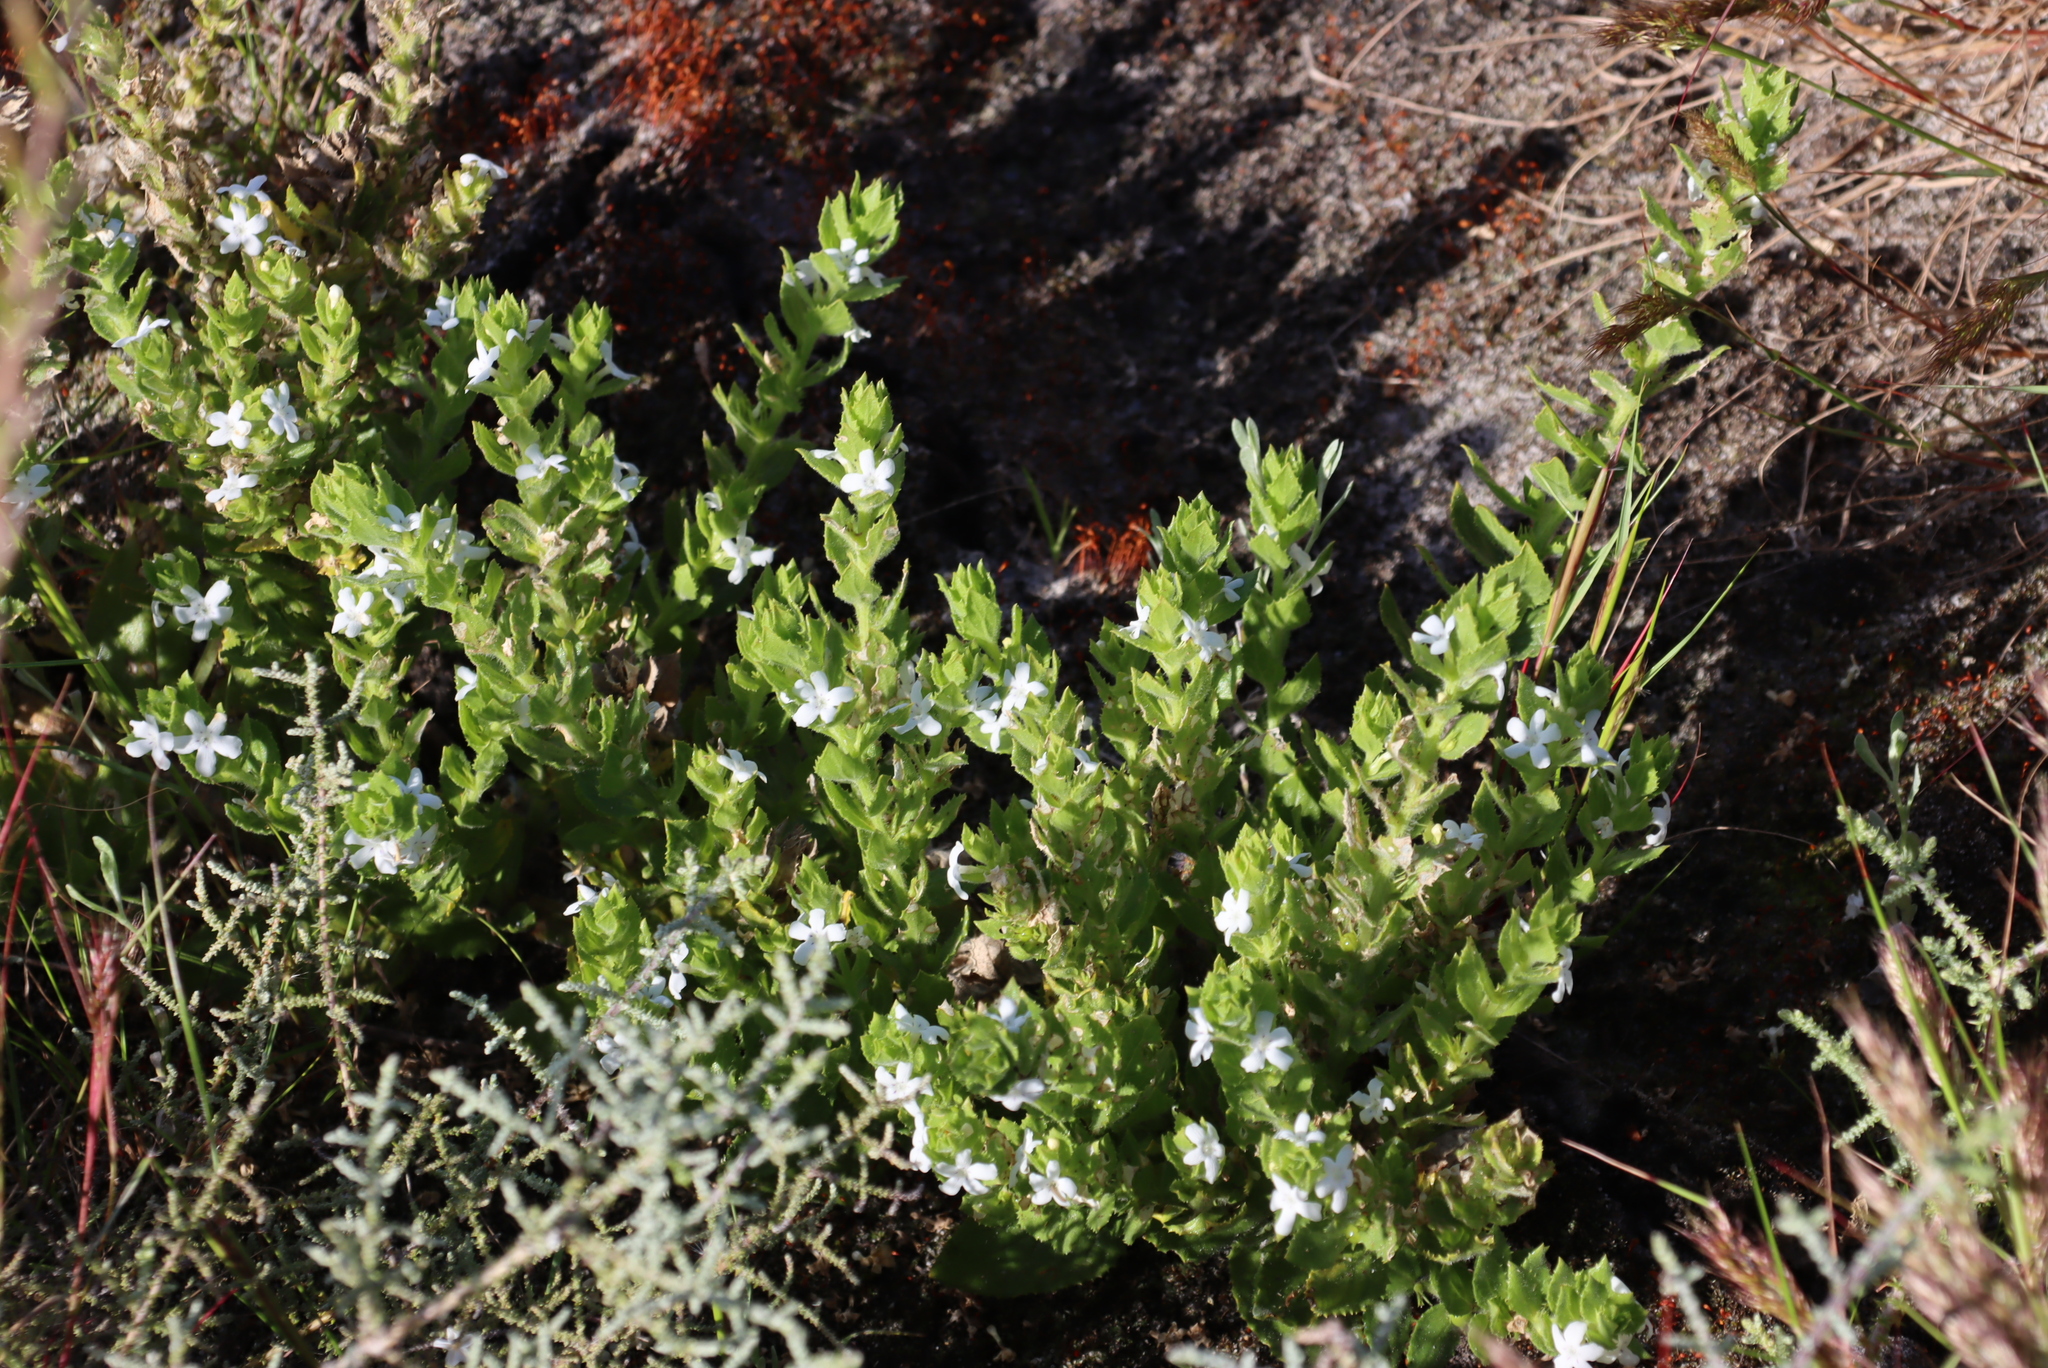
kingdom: Plantae
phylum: Tracheophyta
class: Magnoliopsida
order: Lamiales
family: Scrophulariaceae
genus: Oftia
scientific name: Oftia africana
